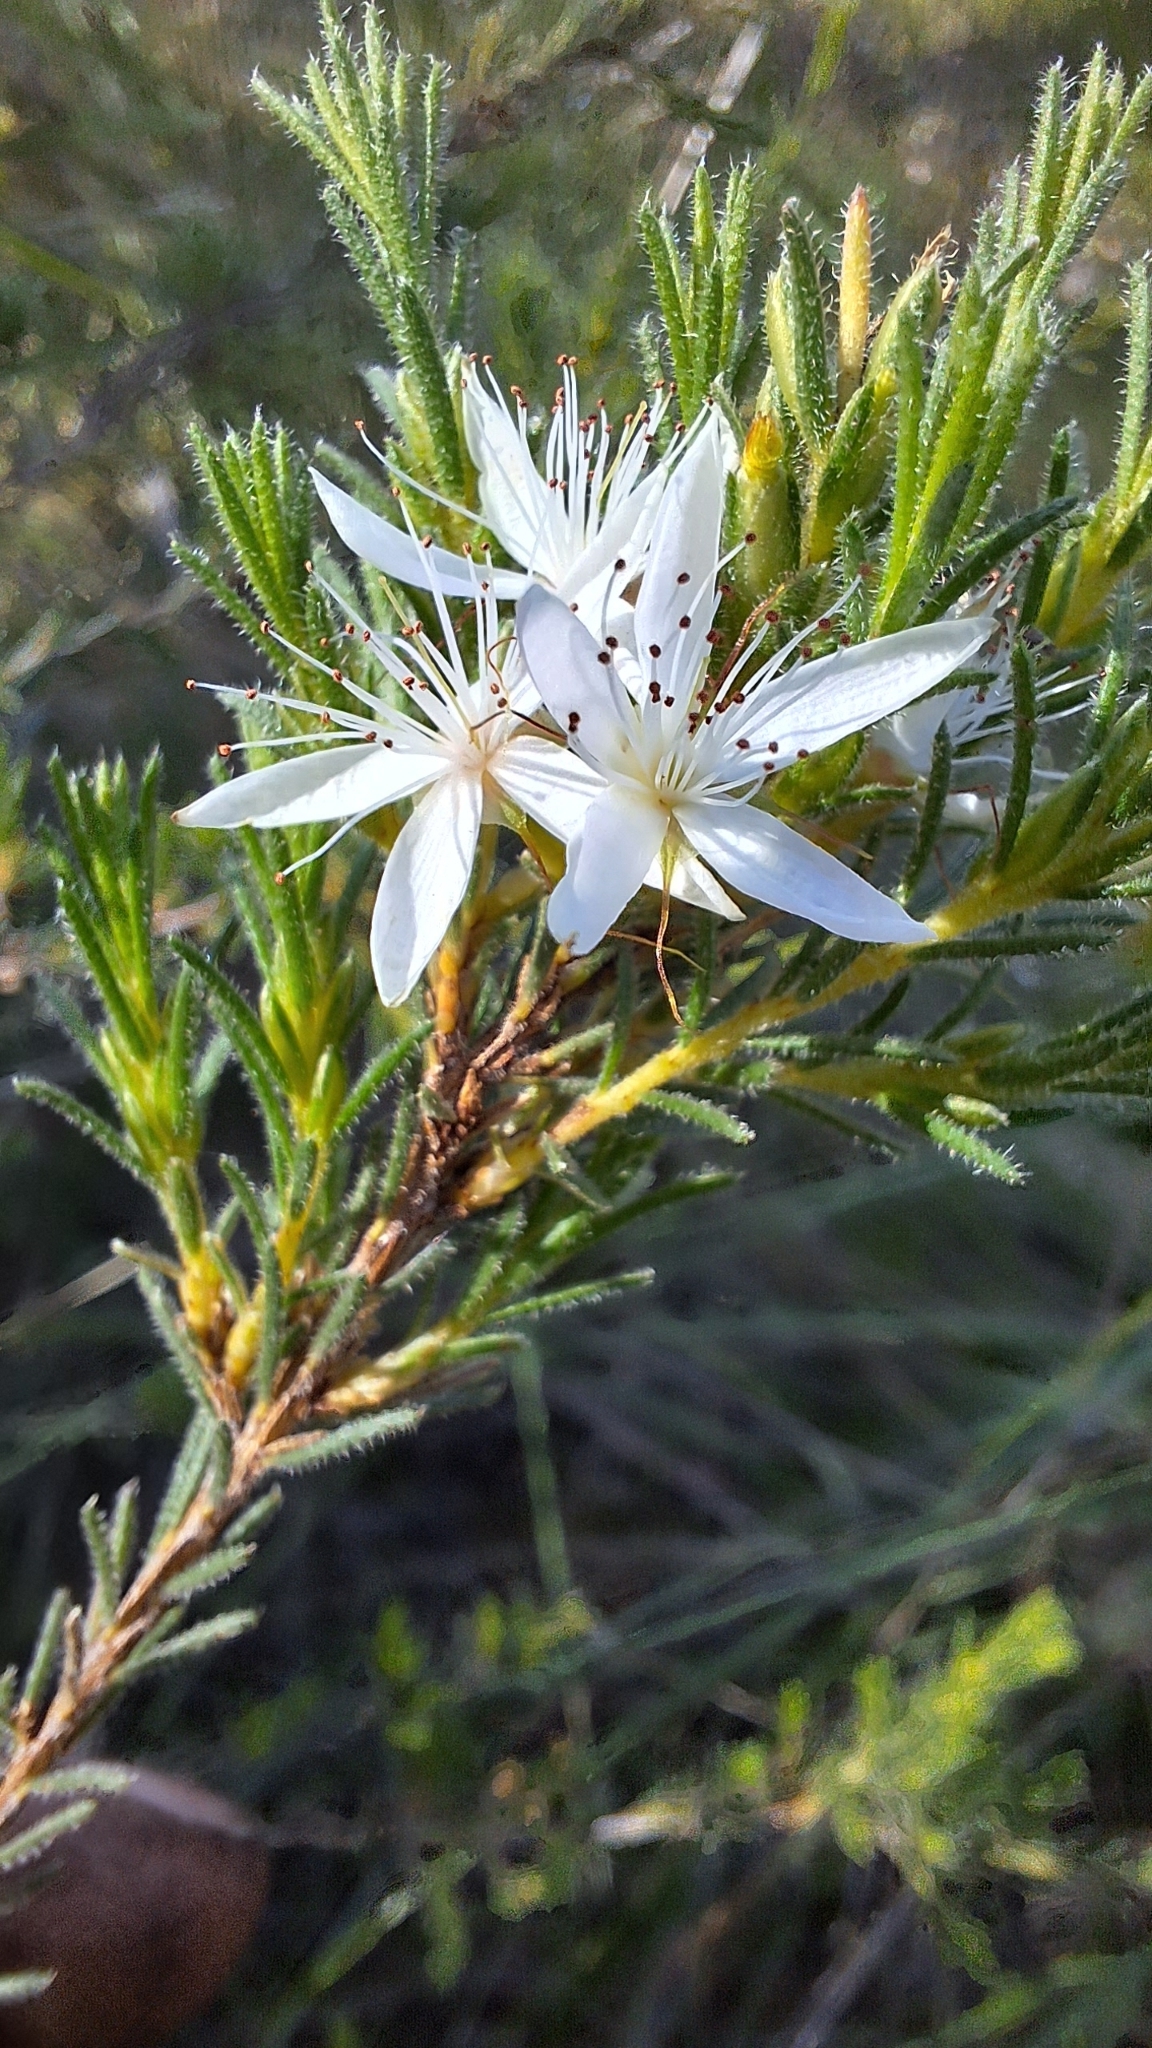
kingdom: Plantae
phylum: Tracheophyta
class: Magnoliopsida
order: Myrtales
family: Myrtaceae
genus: Calytrix
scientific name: Calytrix tetragona
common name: Common fringe myrtle
